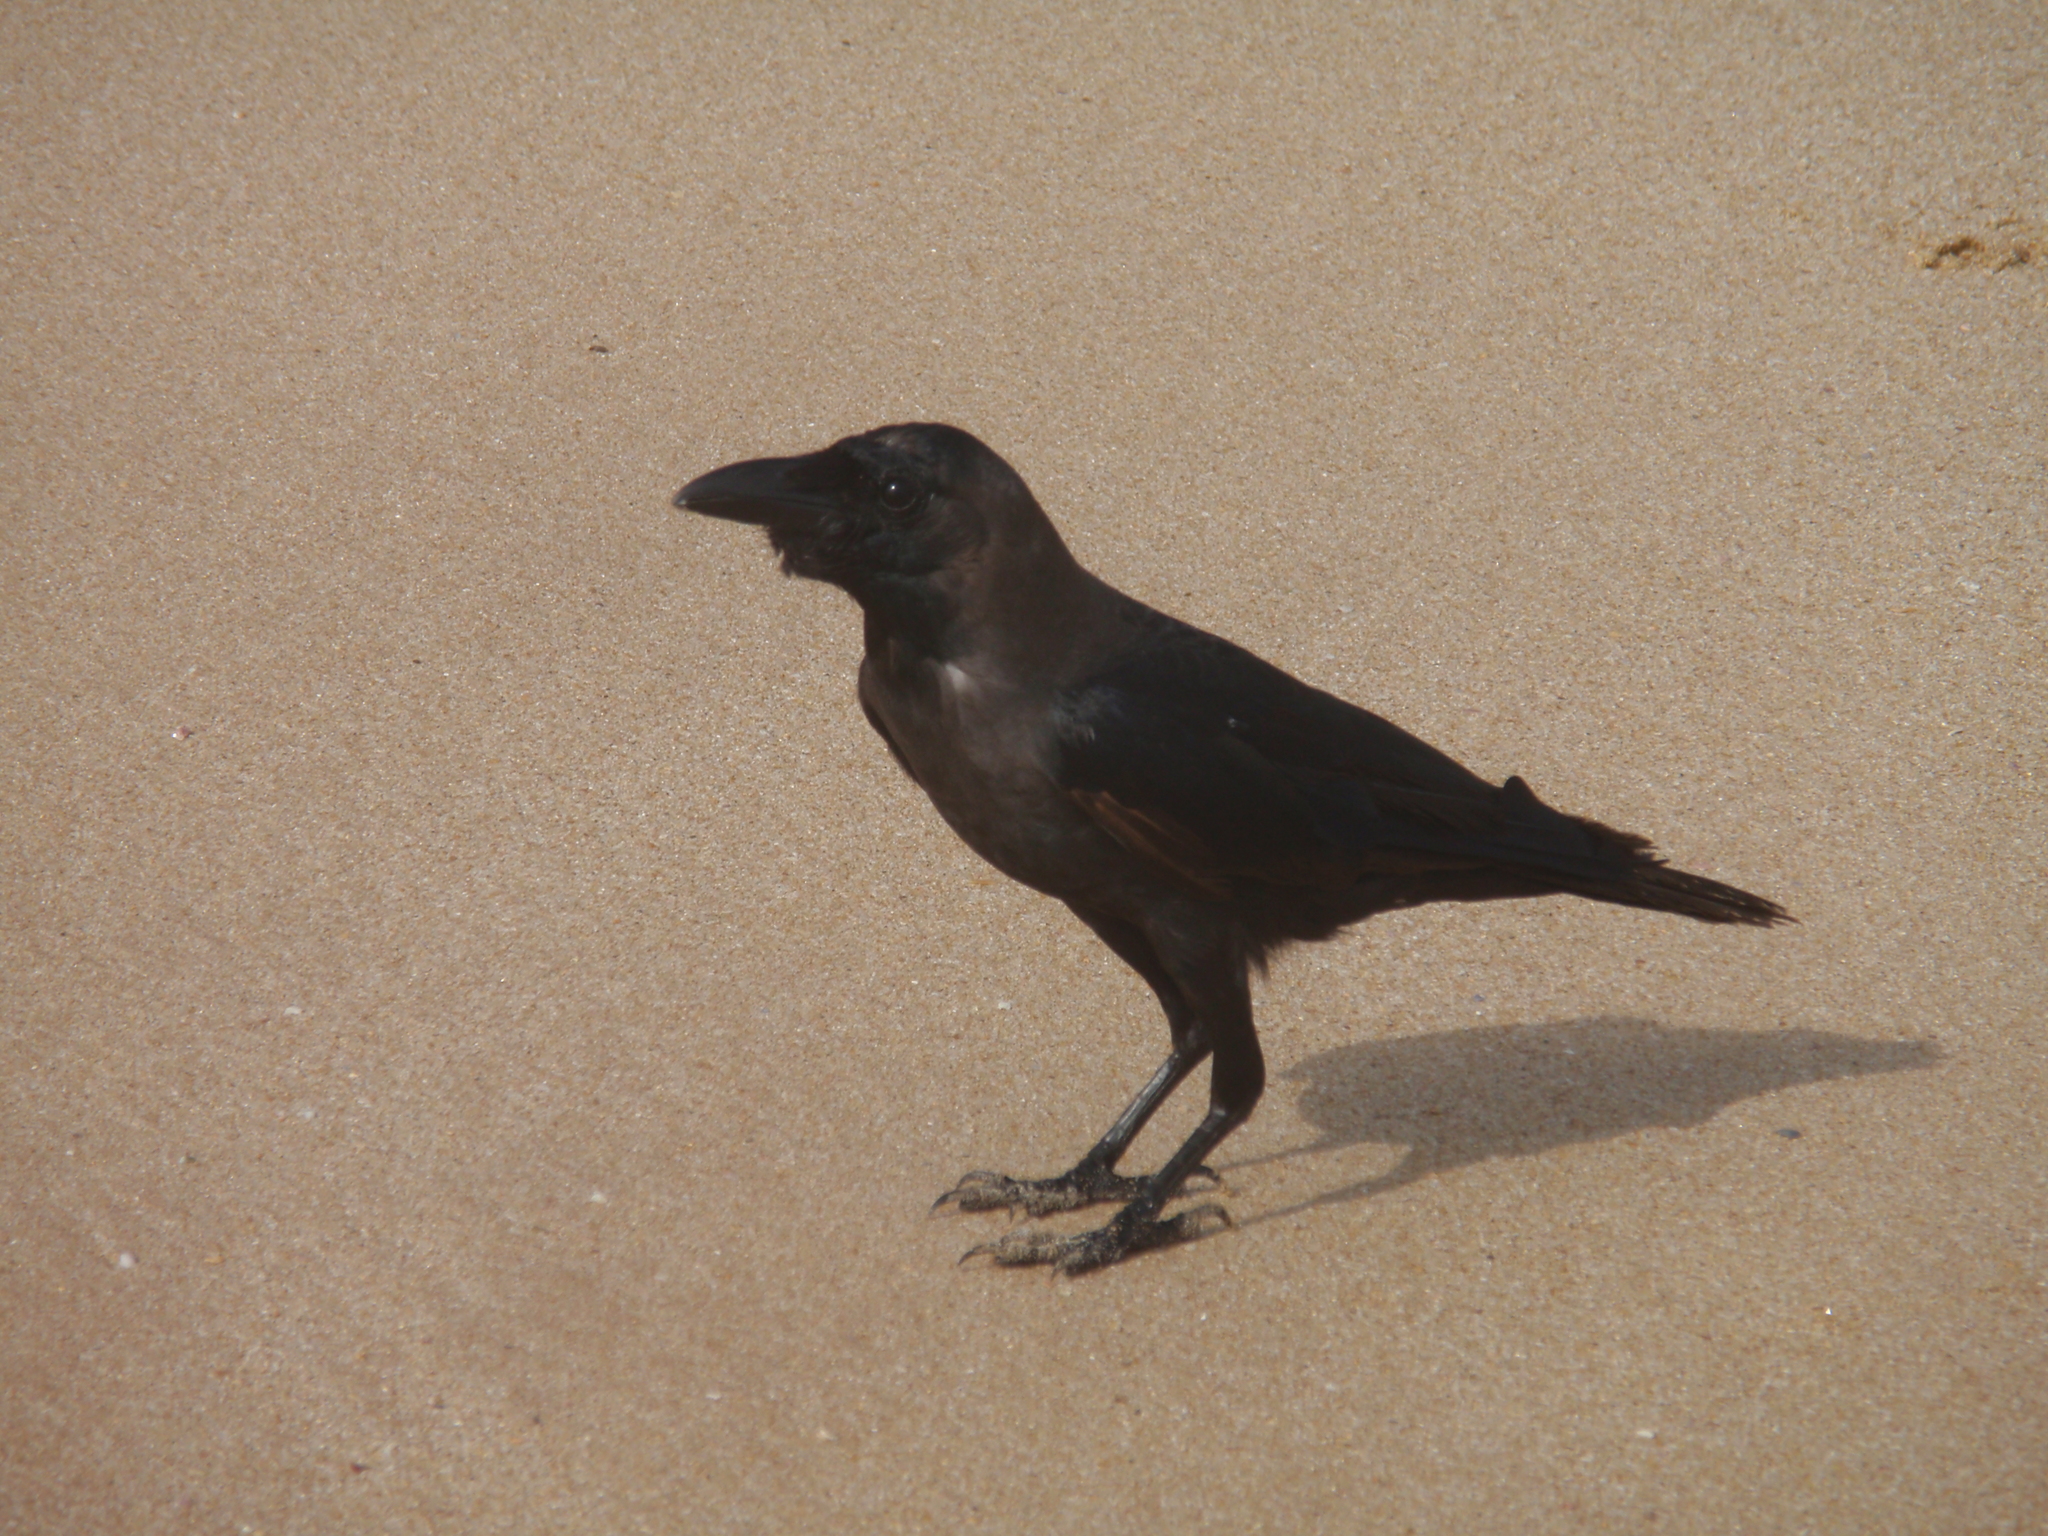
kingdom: Animalia
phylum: Chordata
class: Aves
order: Passeriformes
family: Corvidae
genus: Corvus
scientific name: Corvus splendens
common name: House crow
